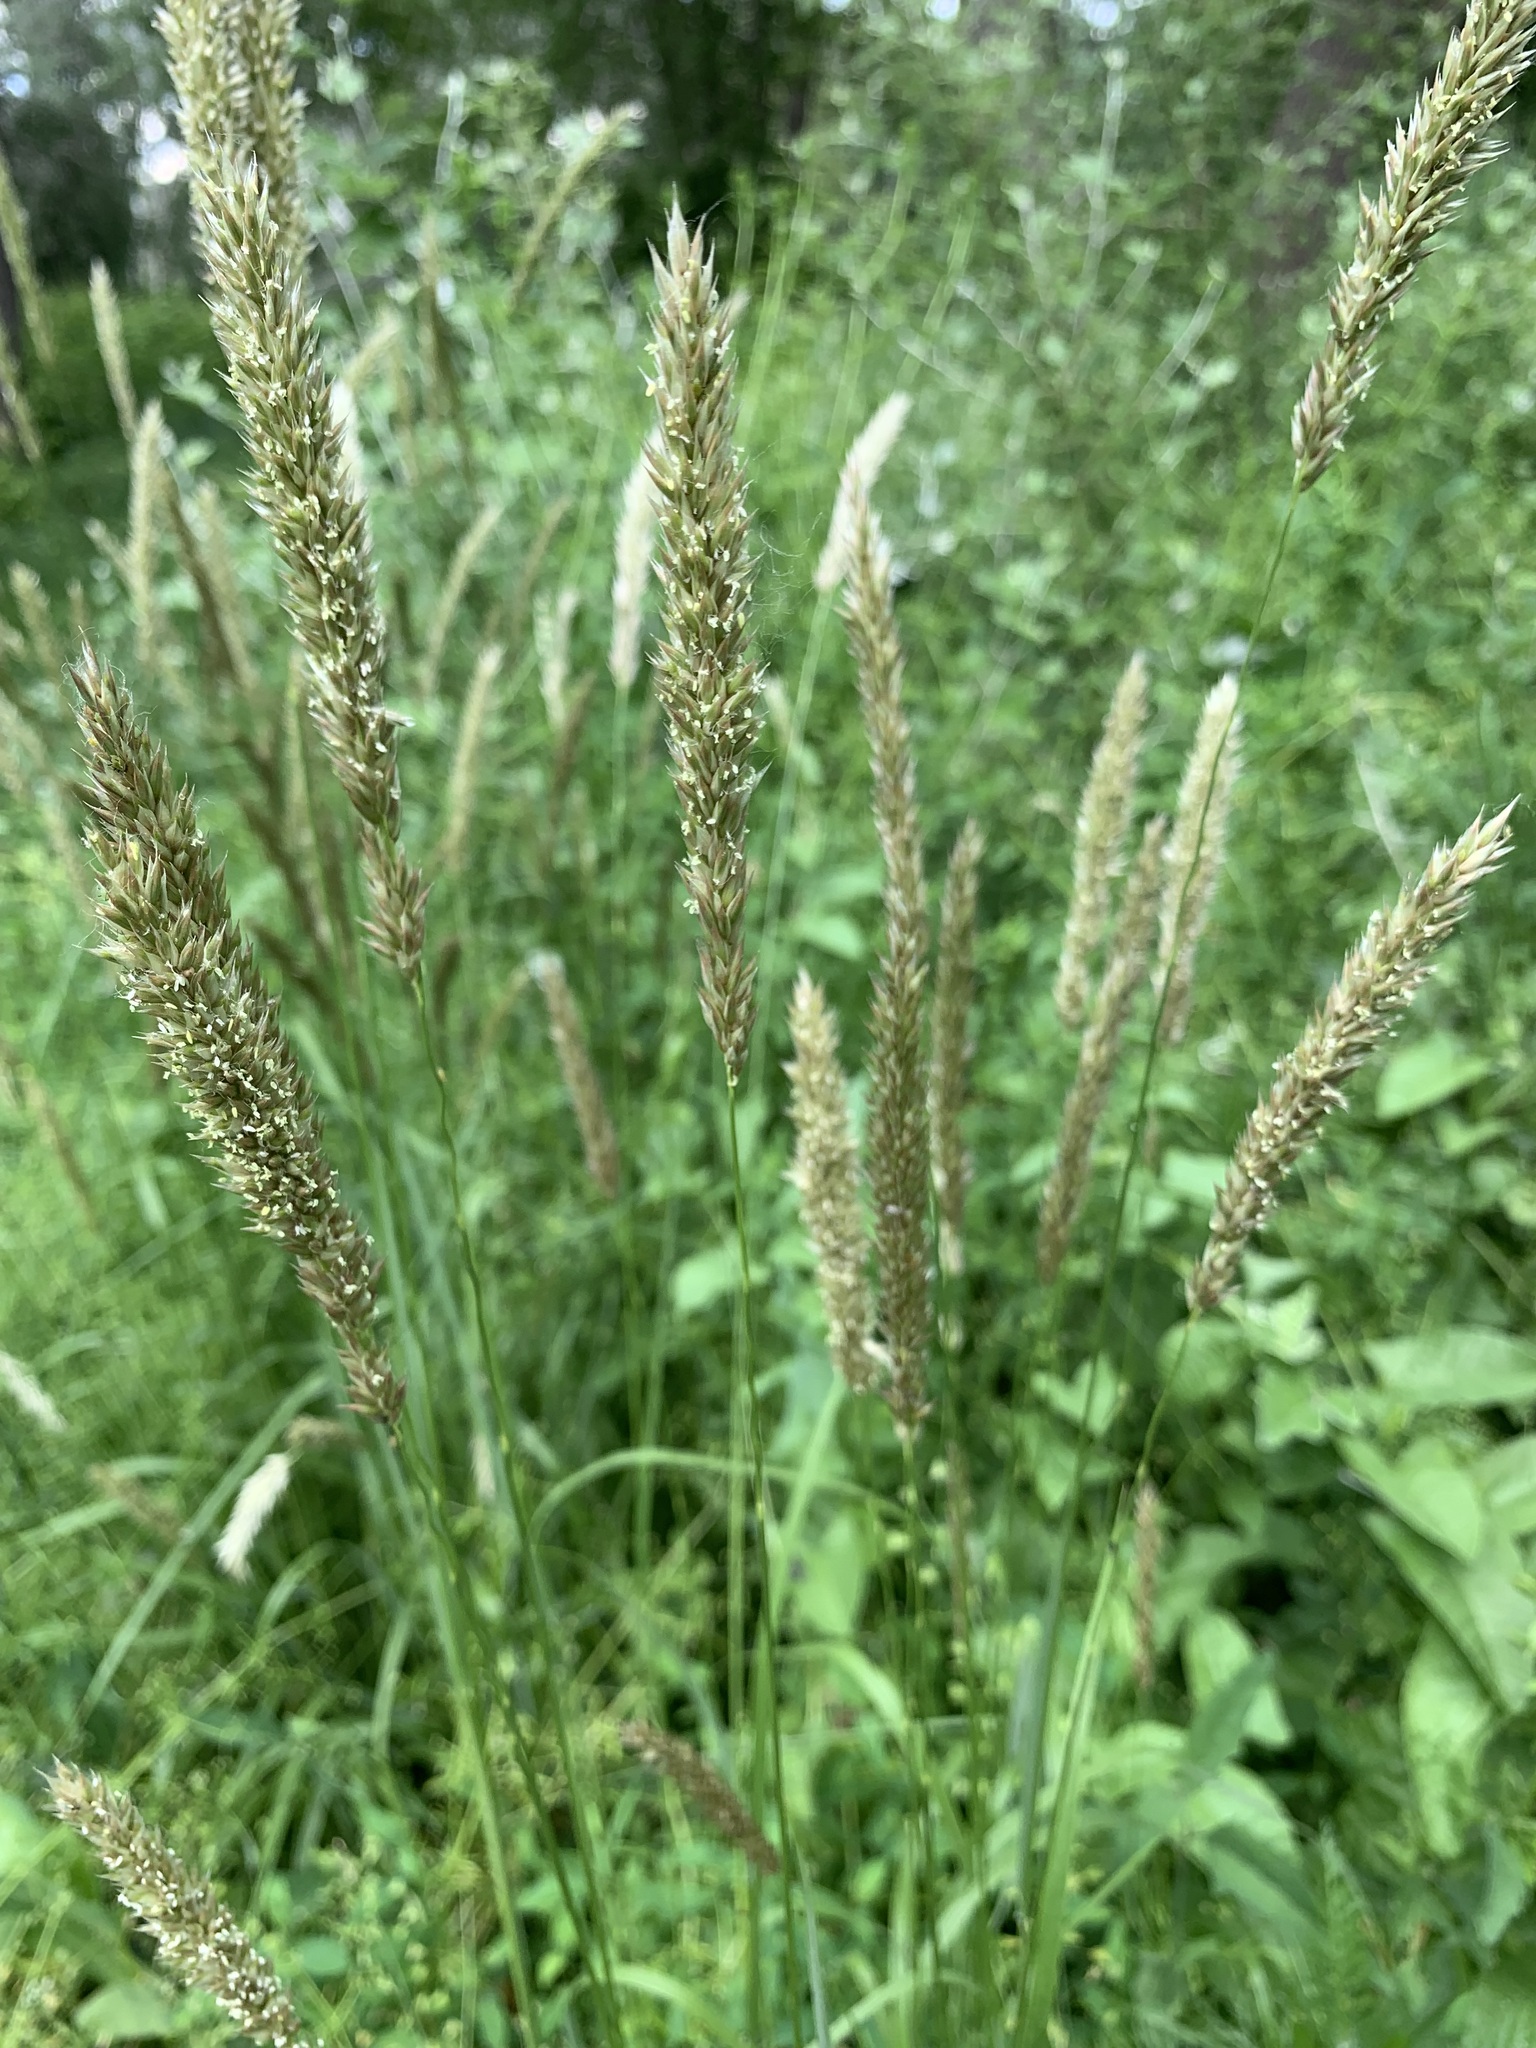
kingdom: Plantae
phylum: Tracheophyta
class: Liliopsida
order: Poales
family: Poaceae
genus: Melica
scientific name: Melica transsilvanica
